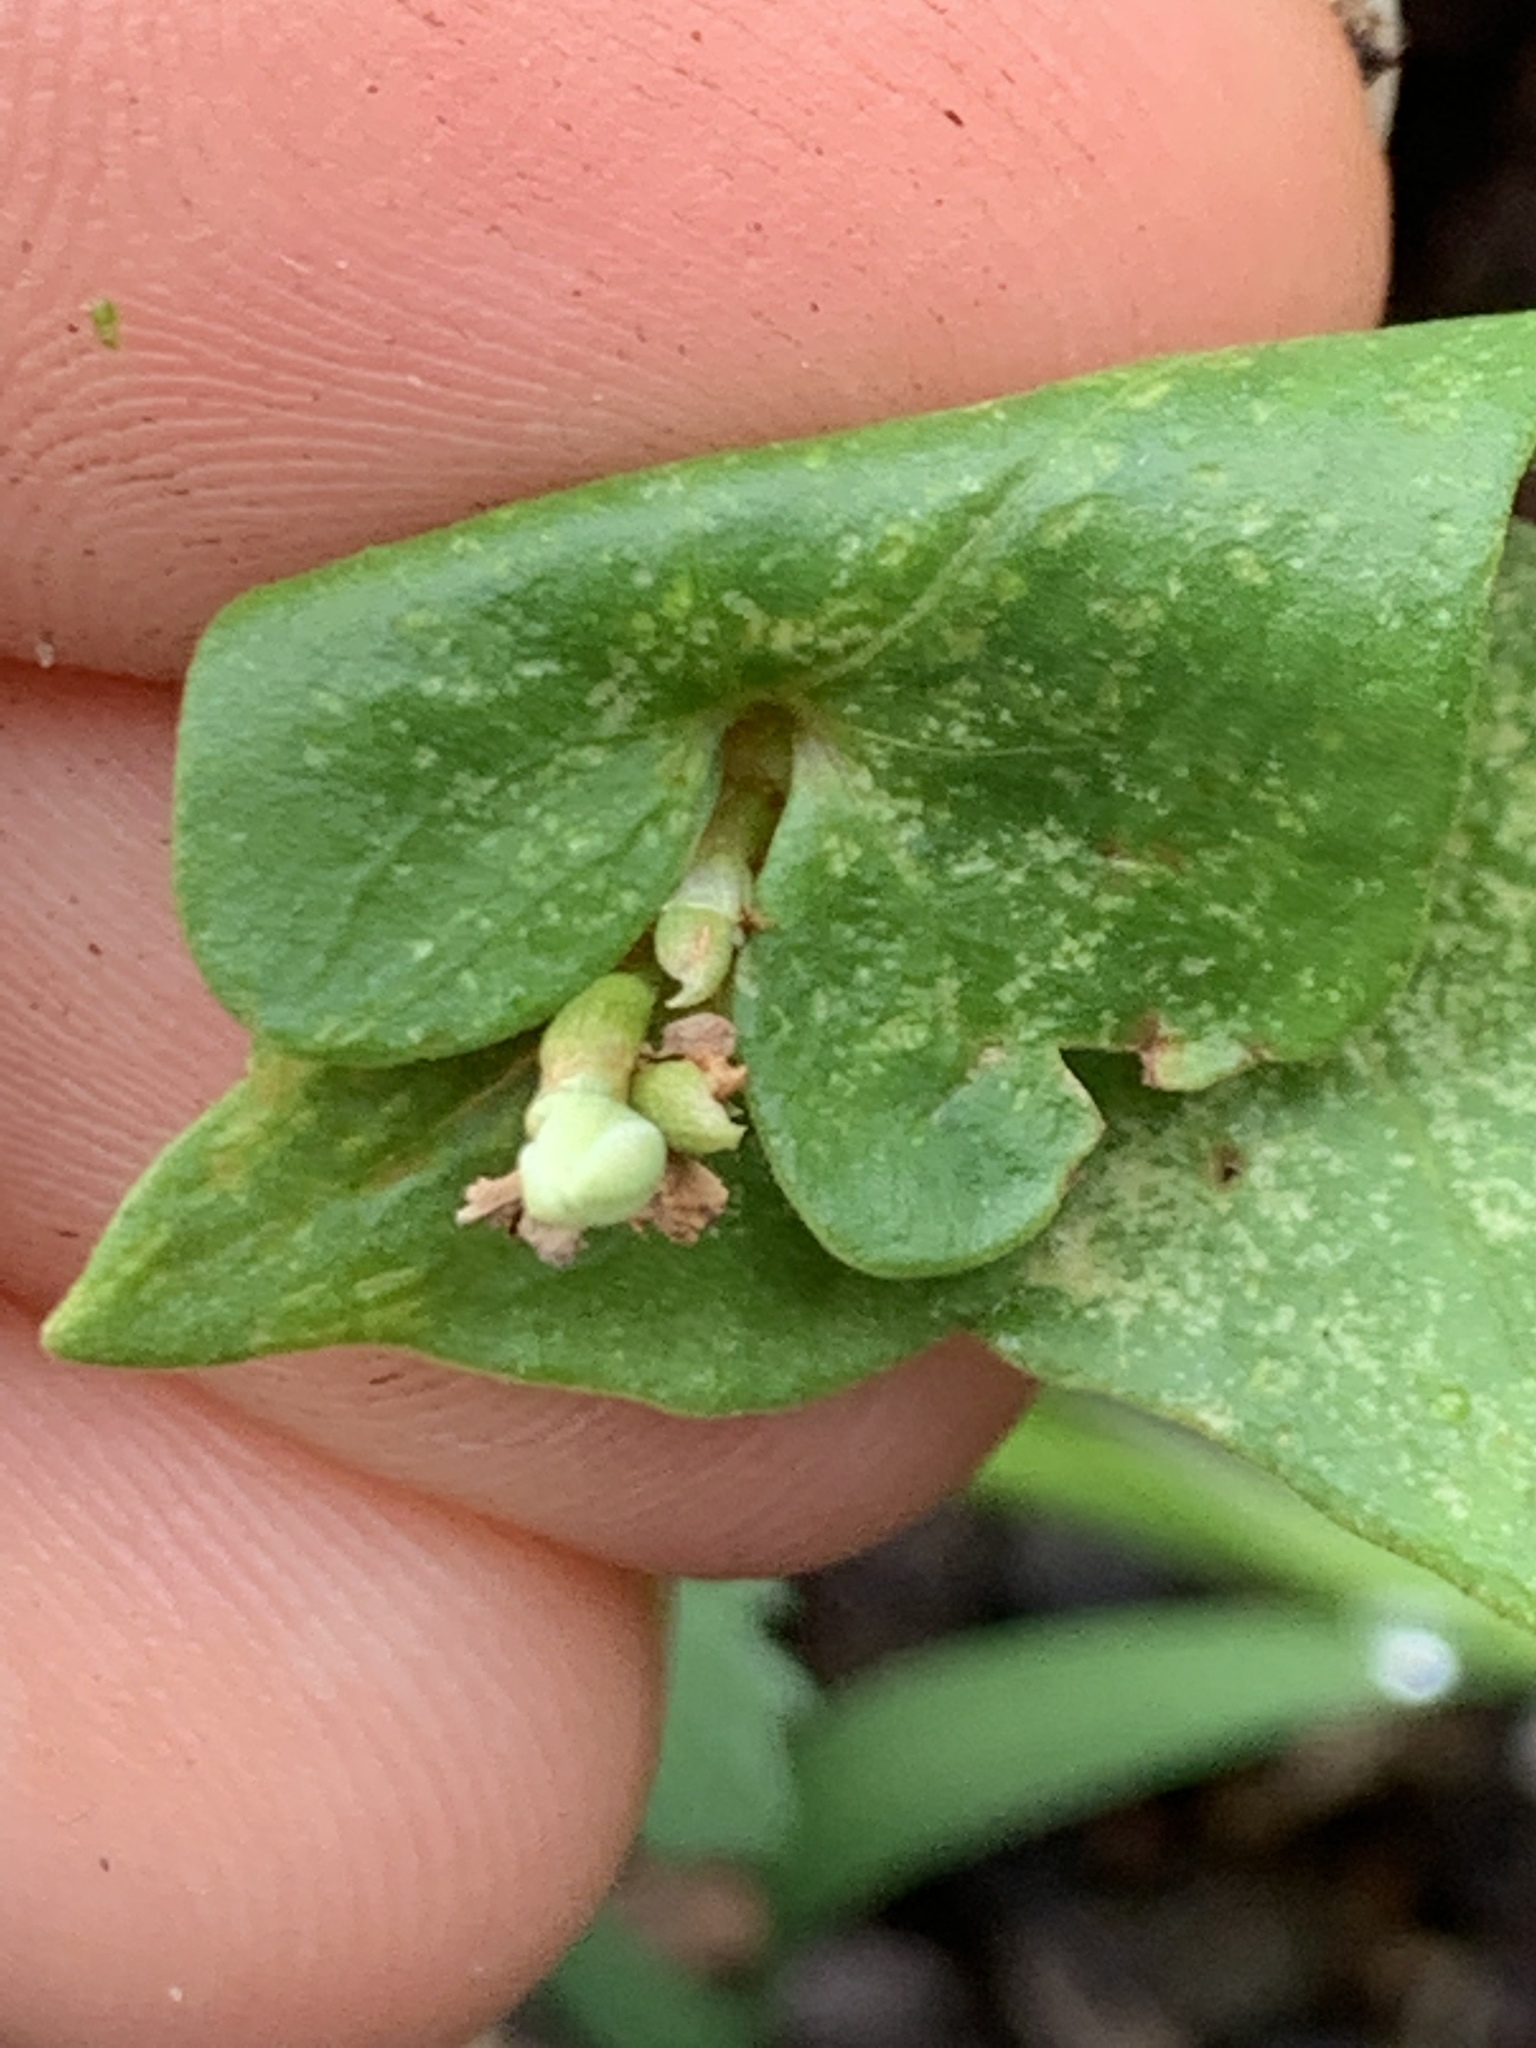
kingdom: Plantae
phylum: Tracheophyta
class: Magnoliopsida
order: Caryophyllales
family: Polygonaceae
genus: Fallopia
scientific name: Fallopia scandens
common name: Climbing false buckwheat
